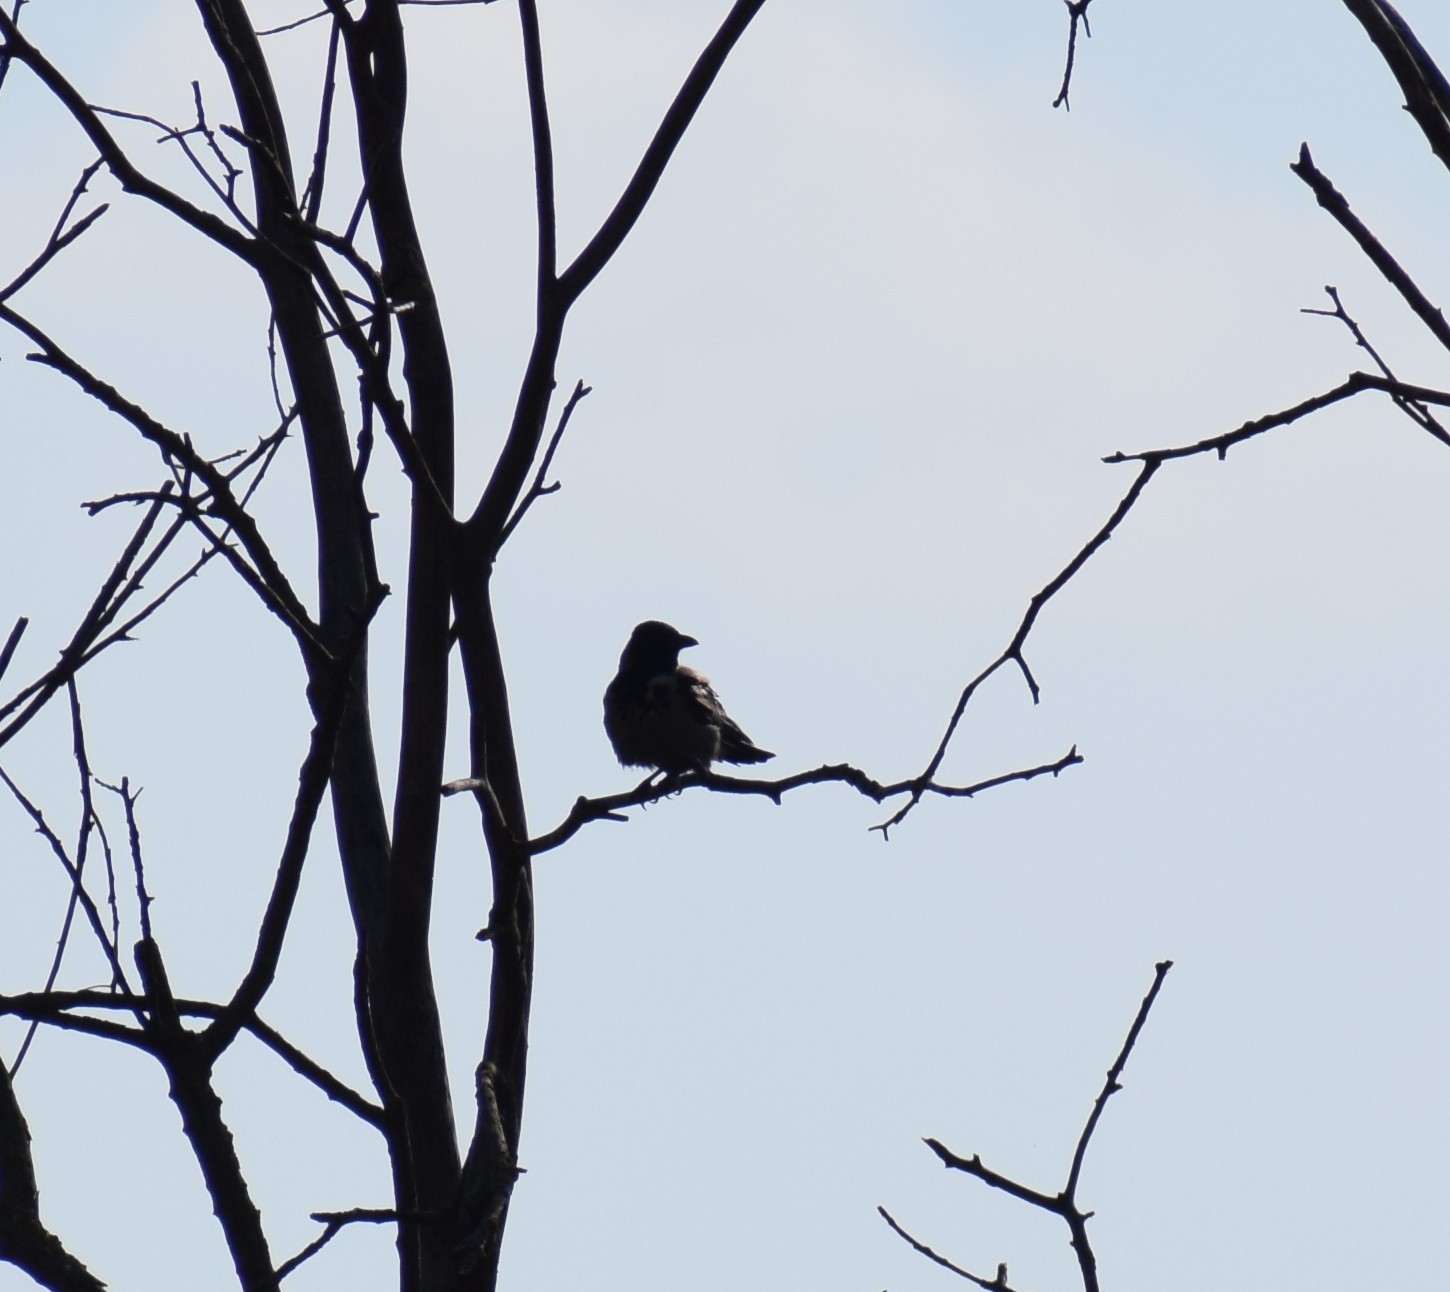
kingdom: Animalia
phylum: Chordata
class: Aves
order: Passeriformes
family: Corvidae
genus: Corvus
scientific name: Corvus cornix
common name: Hooded crow
